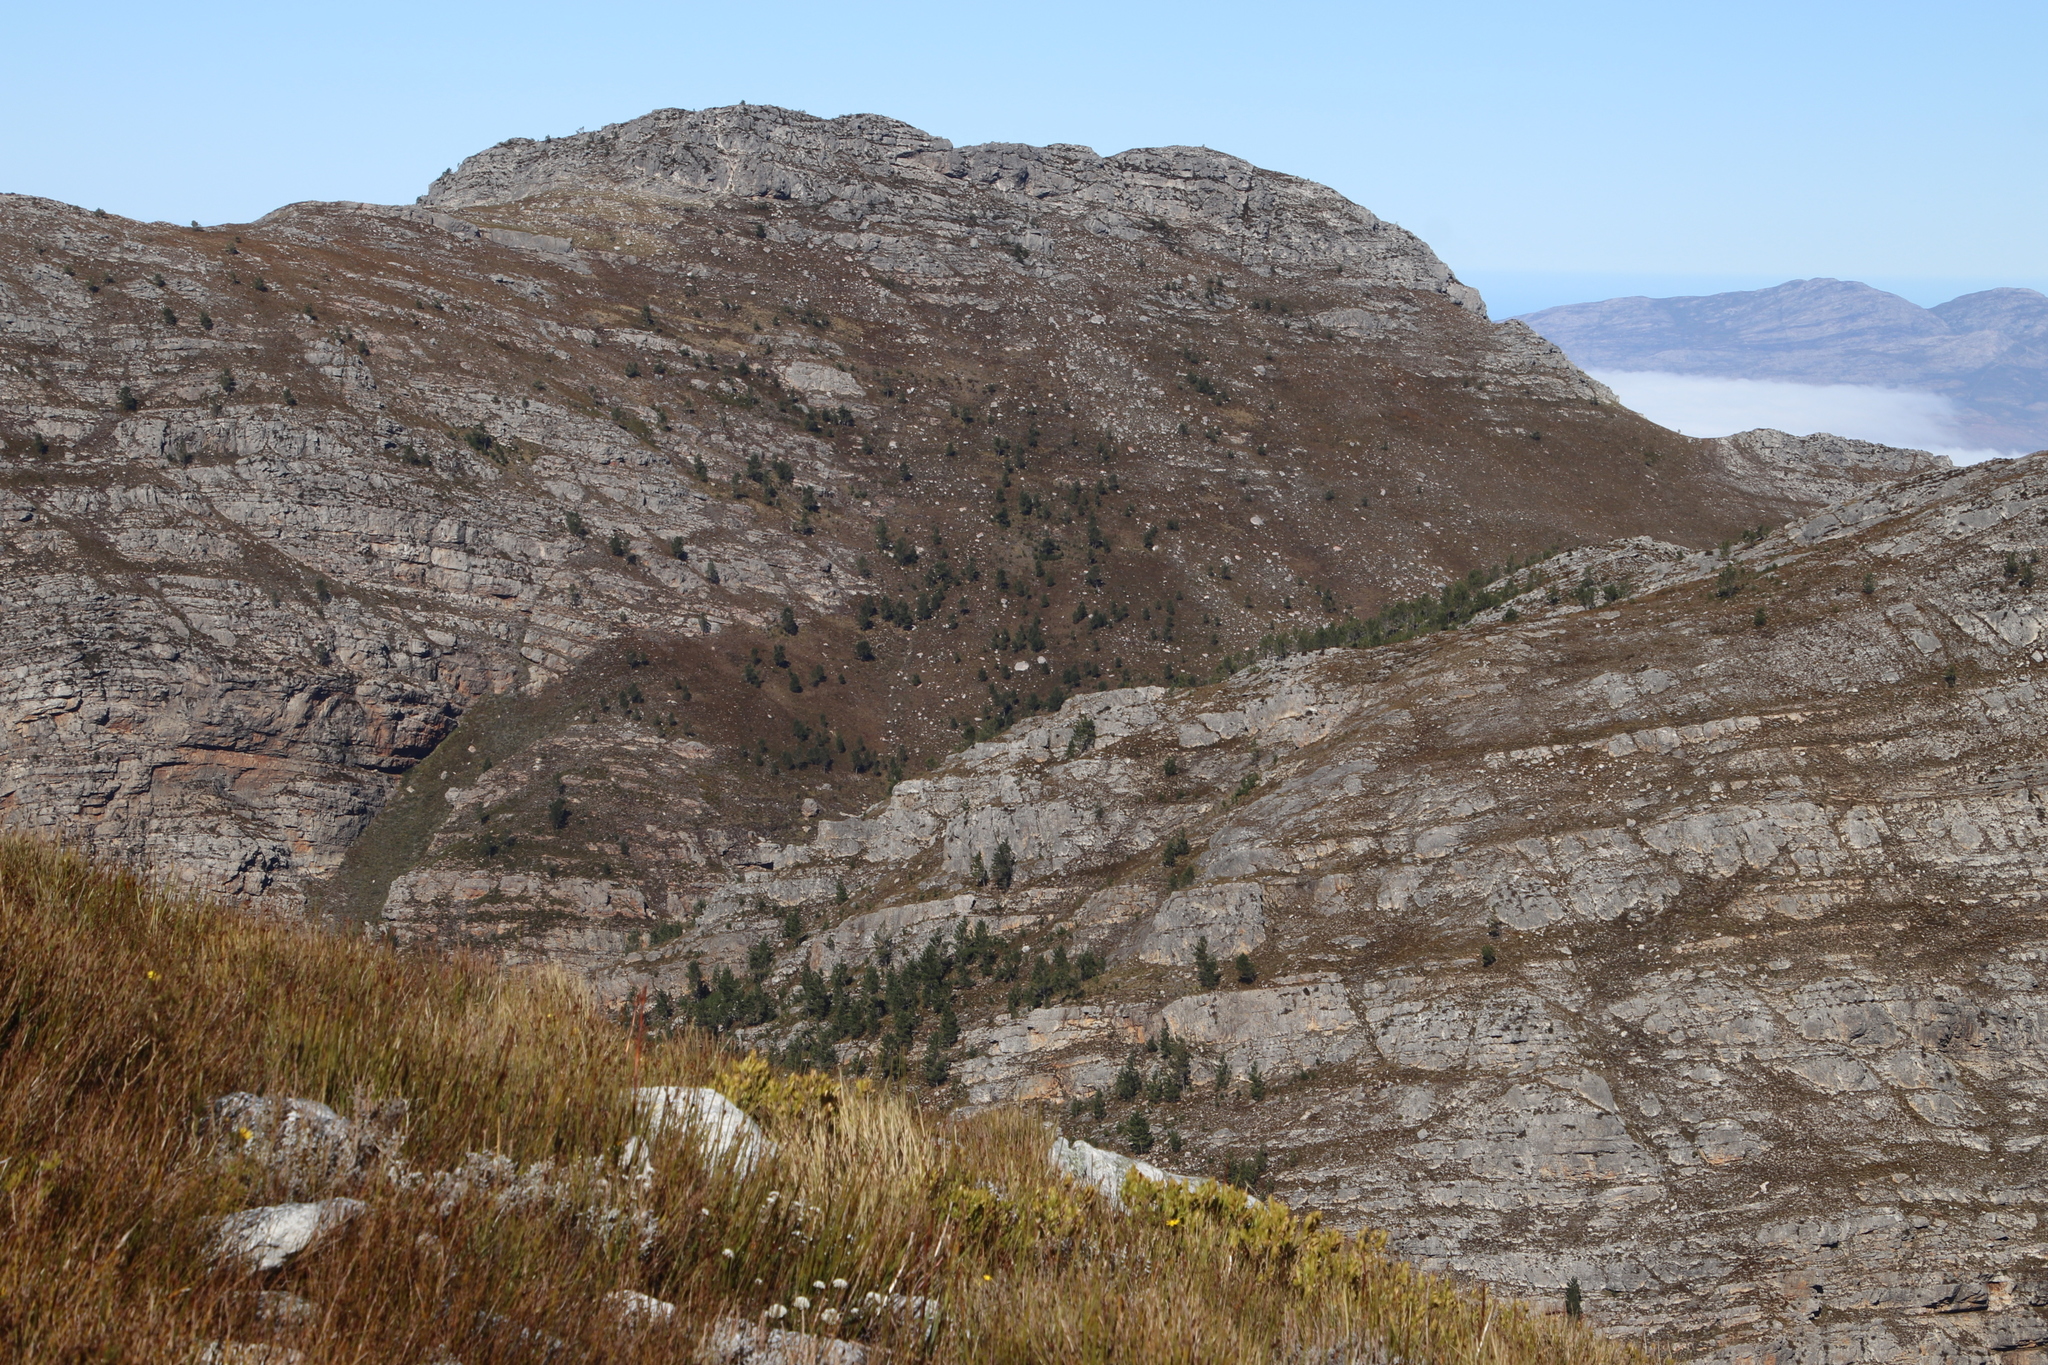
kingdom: Plantae
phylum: Tracheophyta
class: Pinopsida
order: Pinales
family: Pinaceae
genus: Pinus
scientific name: Pinus pinaster
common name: Maritime pine
